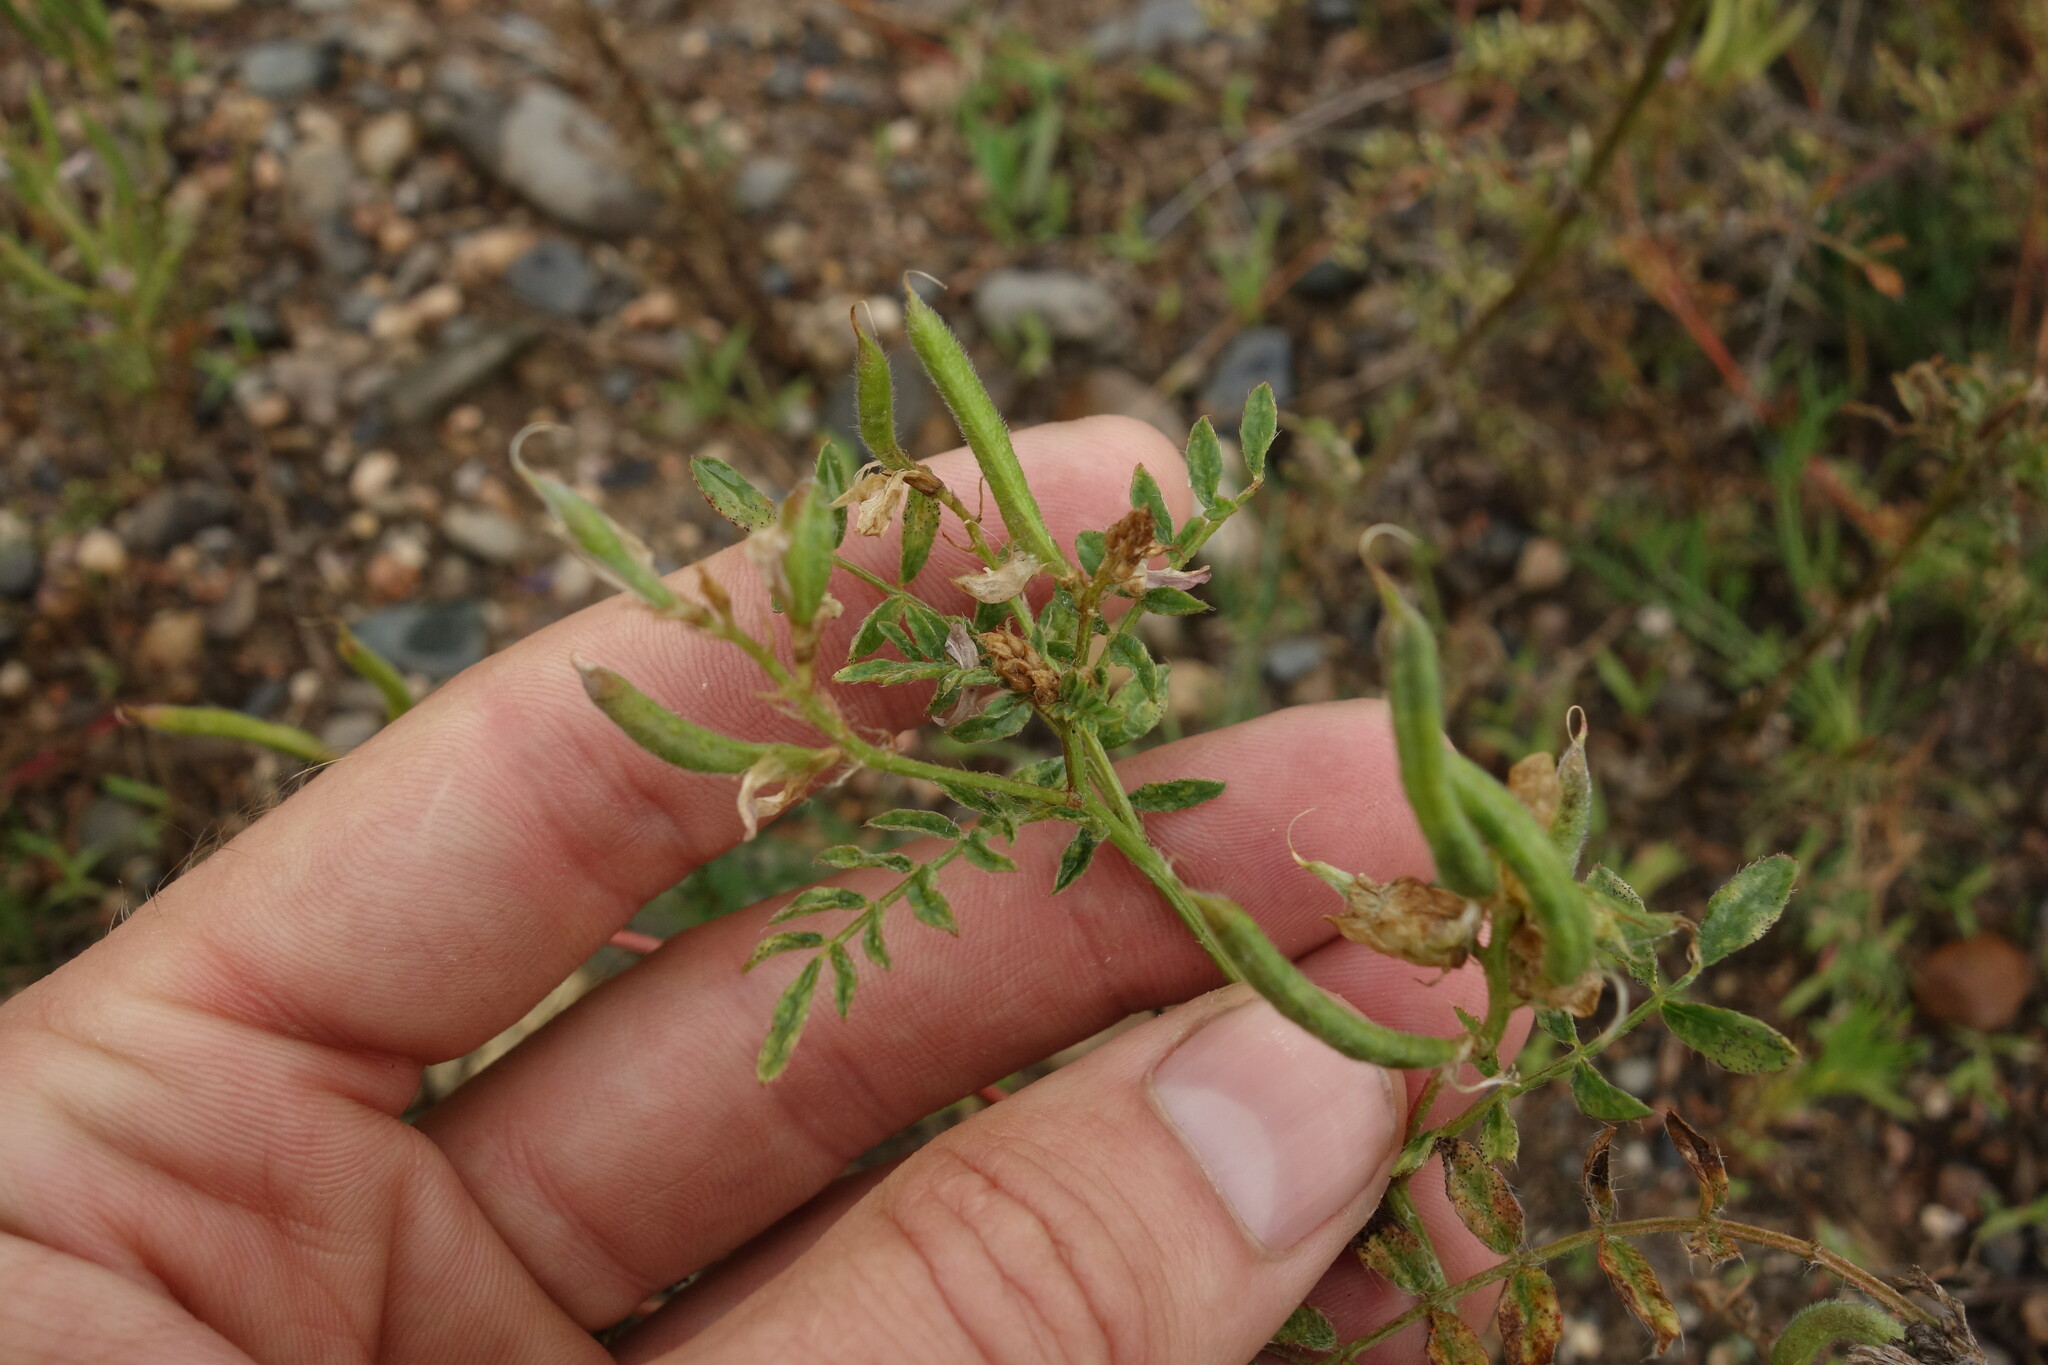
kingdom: Plantae
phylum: Tracheophyta
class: Magnoliopsida
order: Fabales
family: Fabaceae
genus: Astragalus
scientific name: Astragalus davuricus
